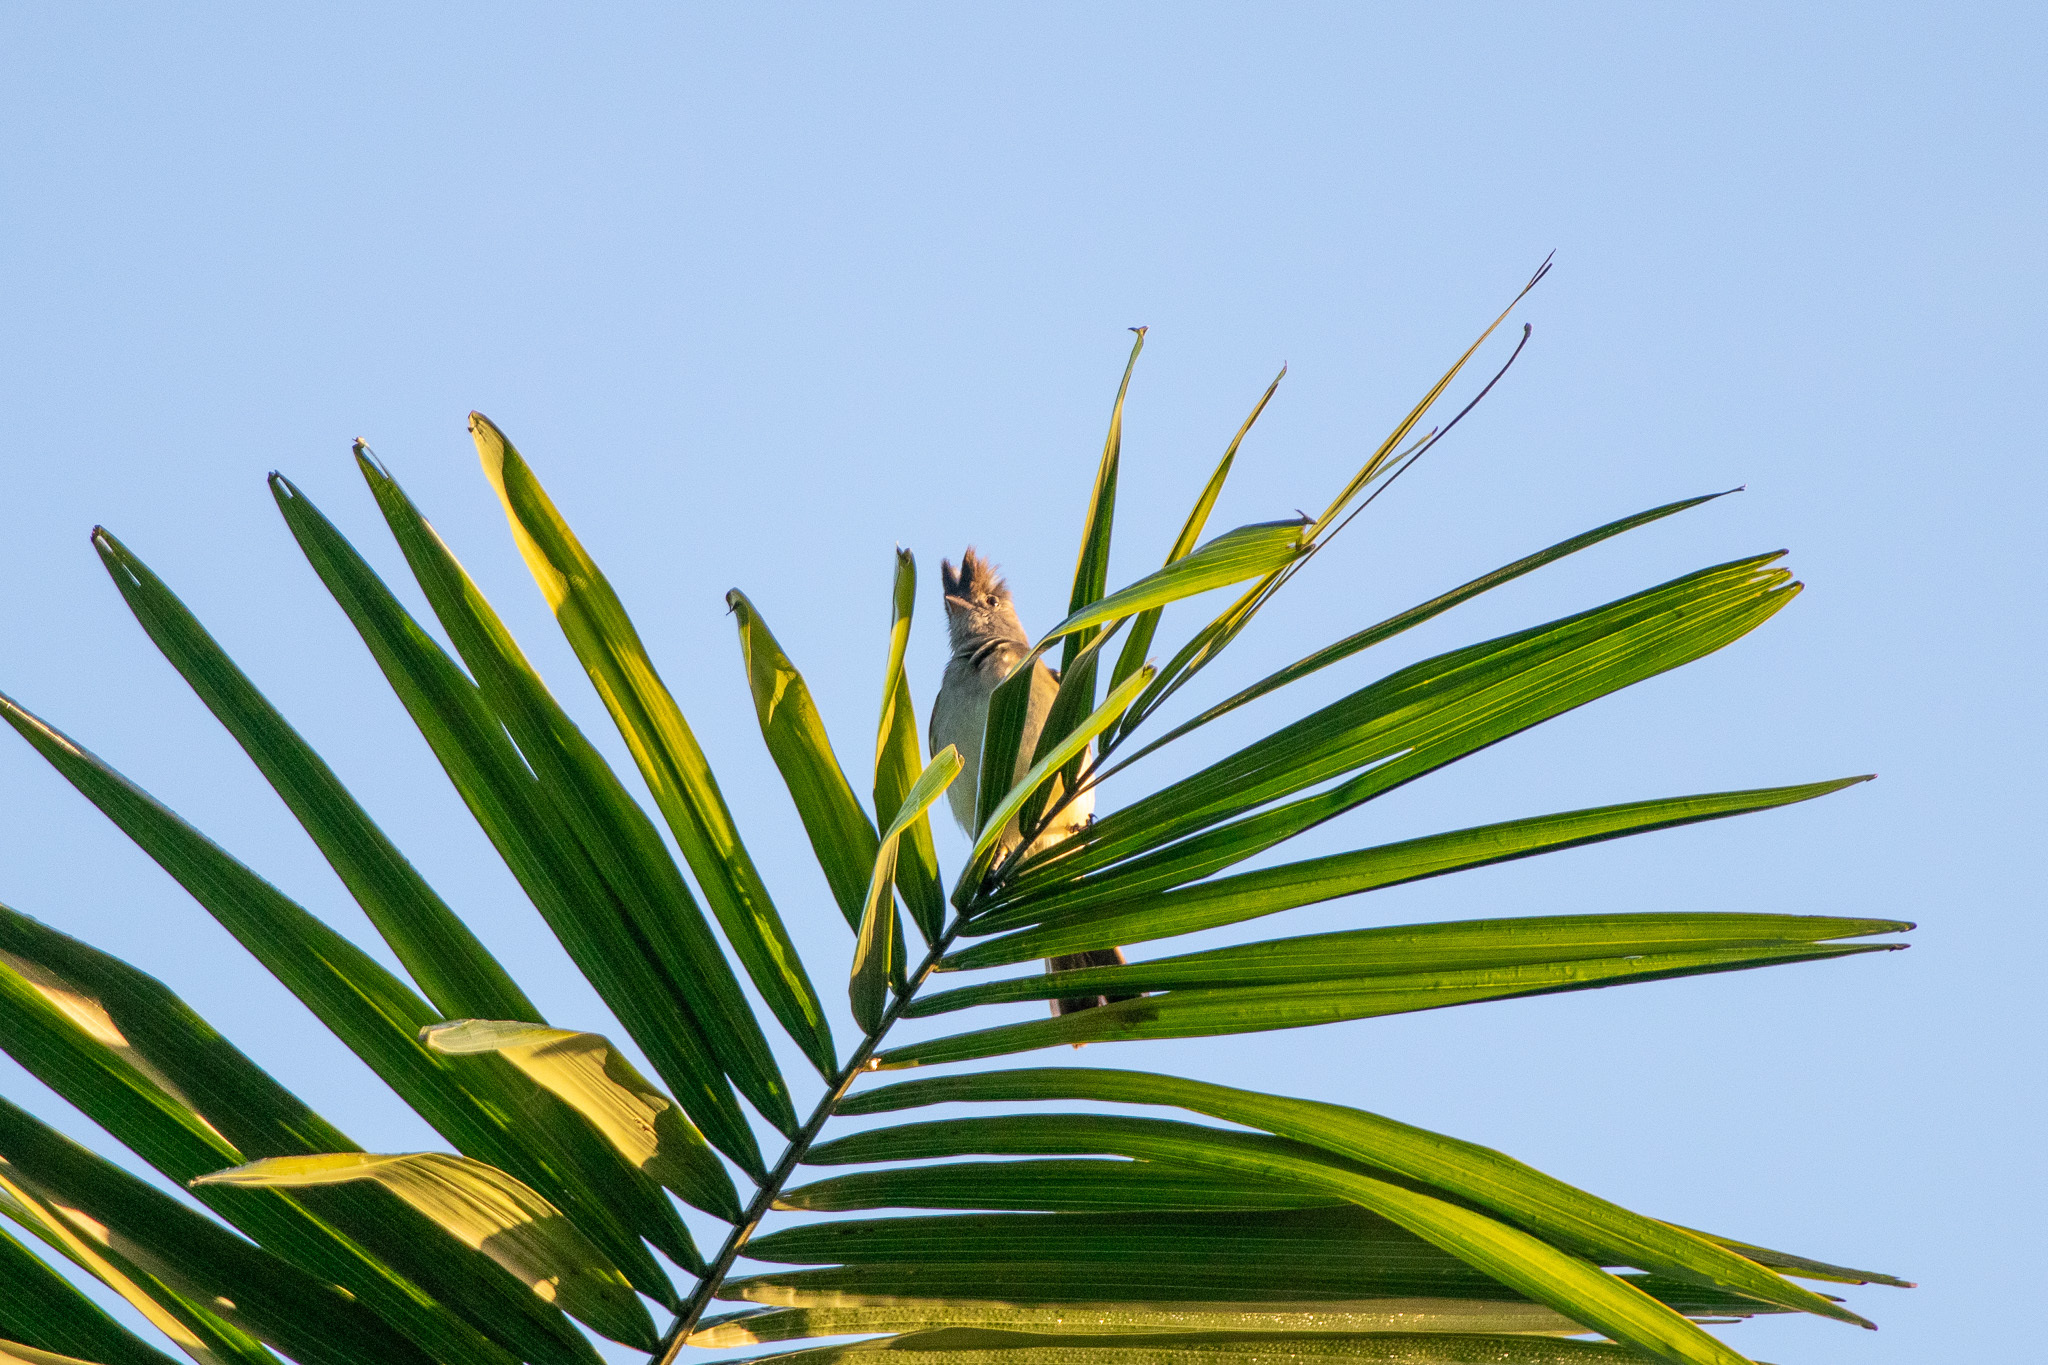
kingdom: Animalia
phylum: Chordata
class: Aves
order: Passeriformes
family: Tyrannidae
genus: Elaenia
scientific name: Elaenia flavogaster
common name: Yellow-bellied elaenia
